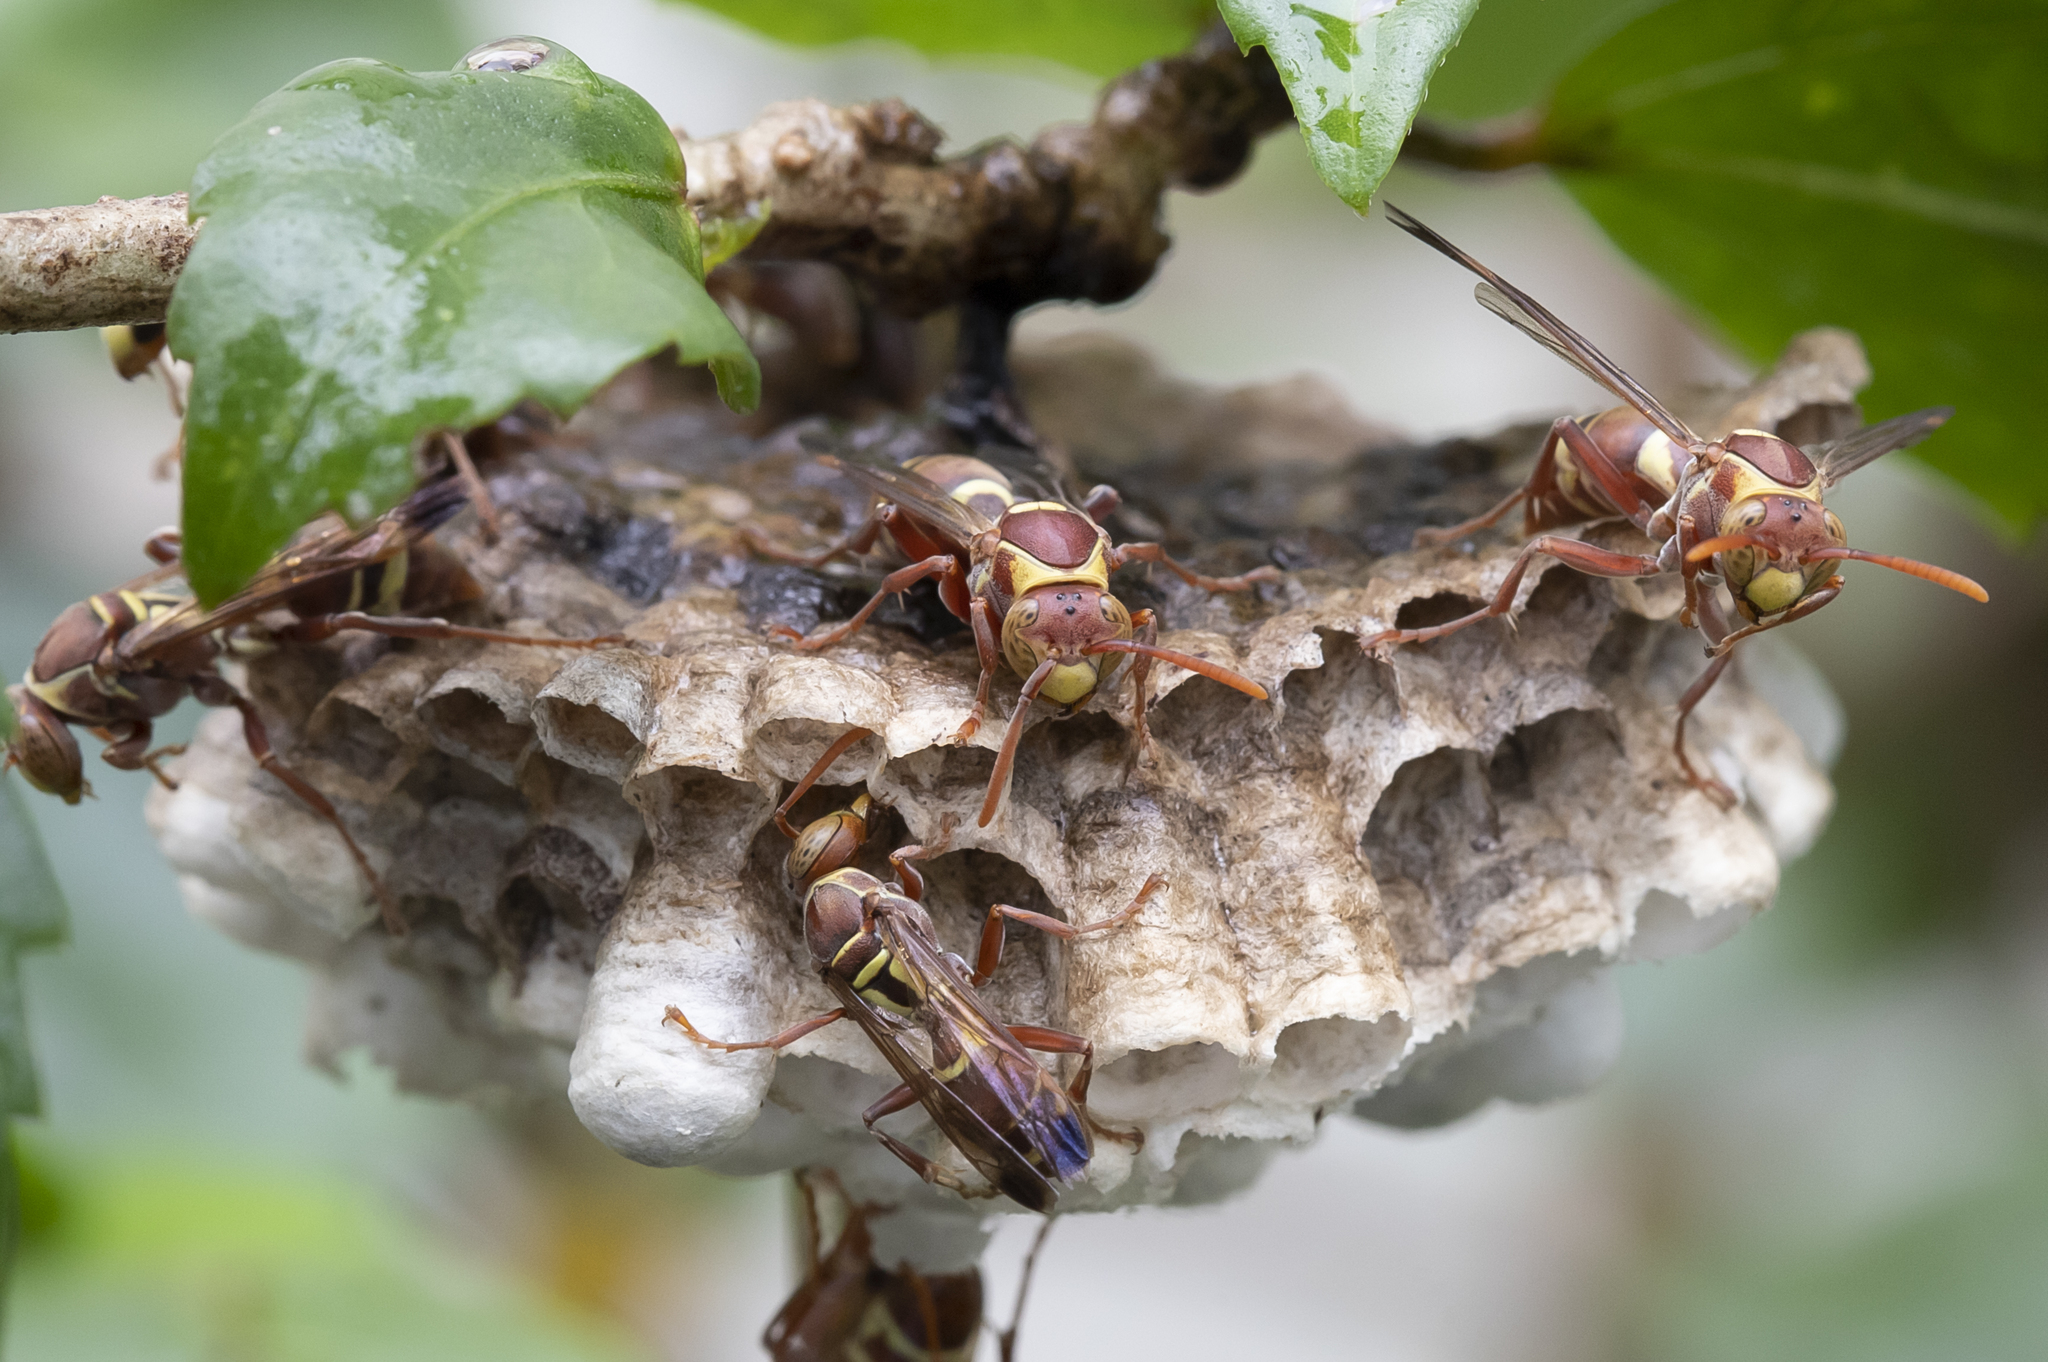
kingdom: Animalia
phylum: Arthropoda
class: Insecta
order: Hymenoptera
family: Eumenidae
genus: Polistes
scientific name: Polistes stigma
